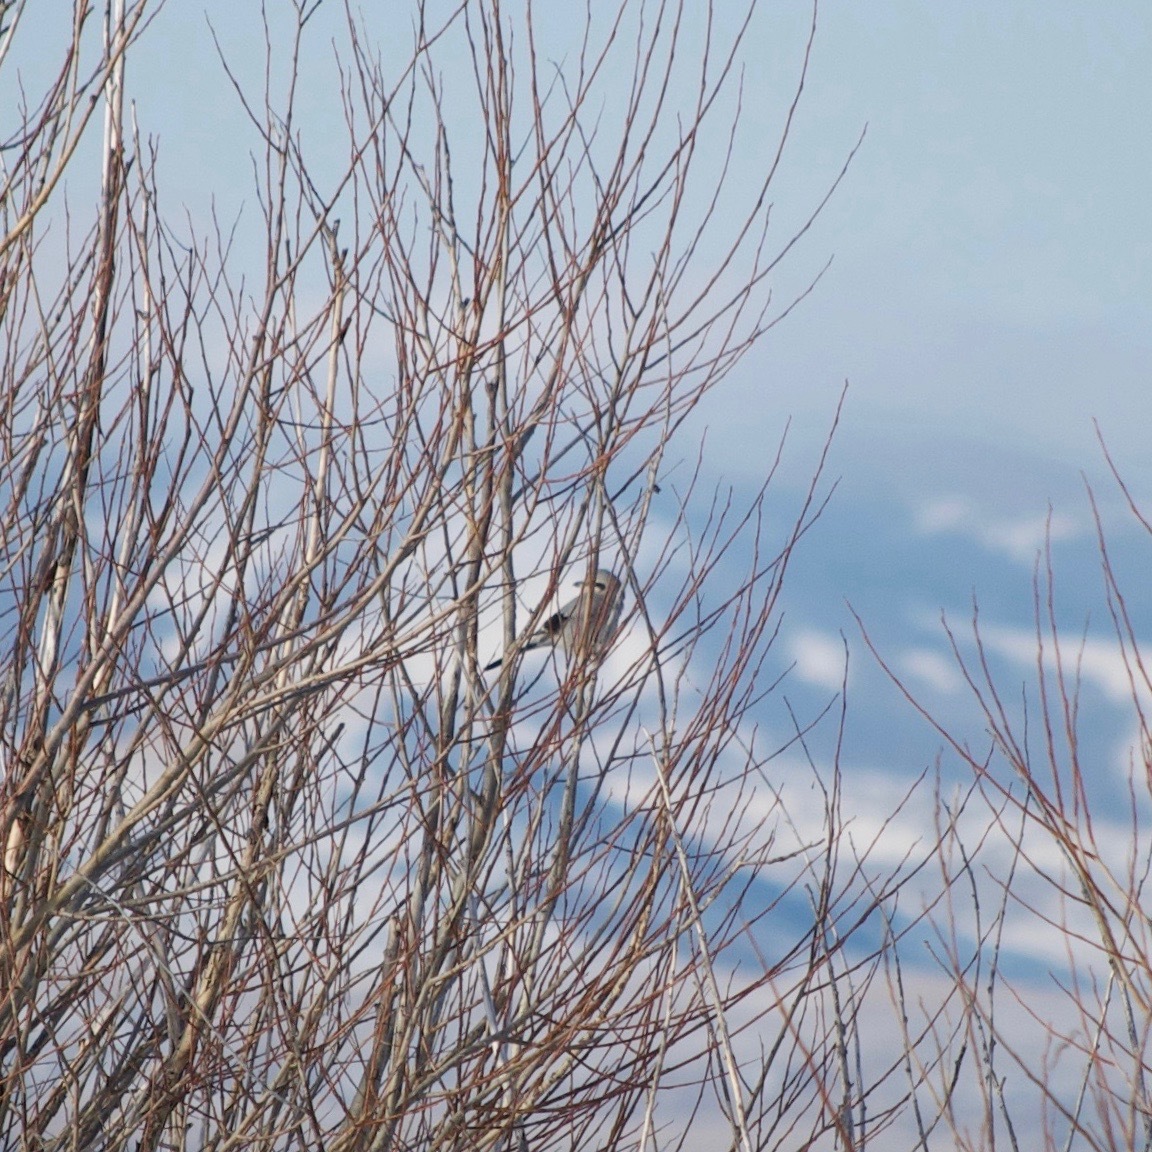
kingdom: Animalia
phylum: Chordata
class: Aves
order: Passeriformes
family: Laniidae
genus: Lanius
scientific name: Lanius borealis
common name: Northern shrike
